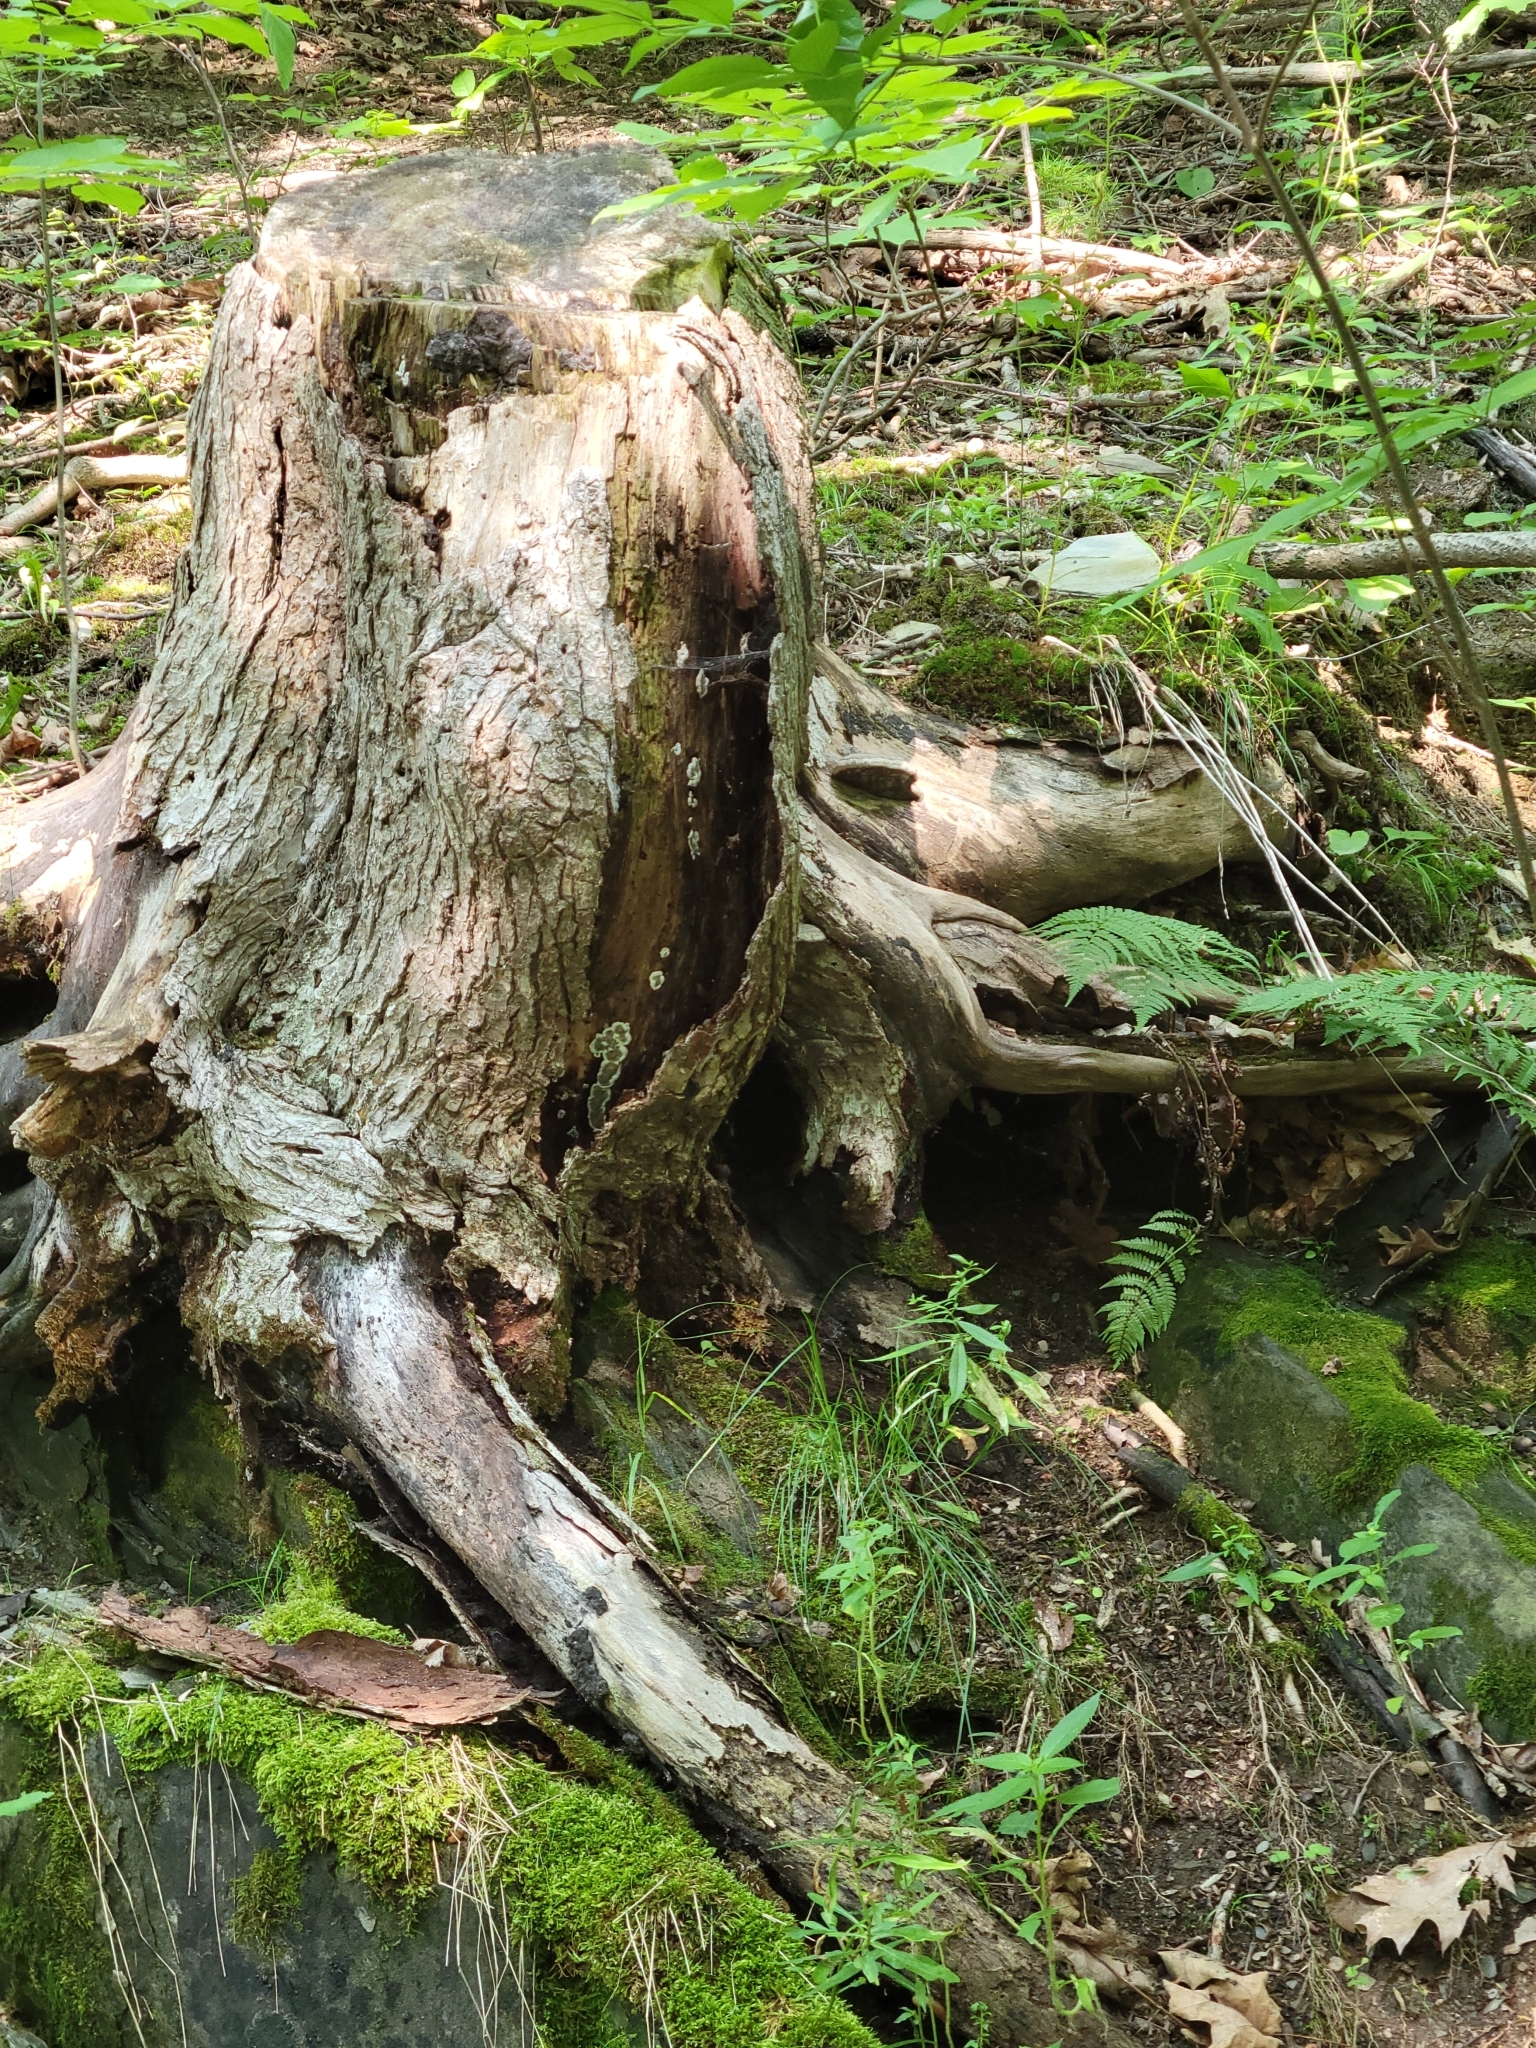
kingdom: Fungi
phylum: Ascomycota
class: Sordariomycetes
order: Xylariales
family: Xylariaceae
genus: Kretzschmaria
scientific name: Kretzschmaria deusta
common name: Brittle cinder
